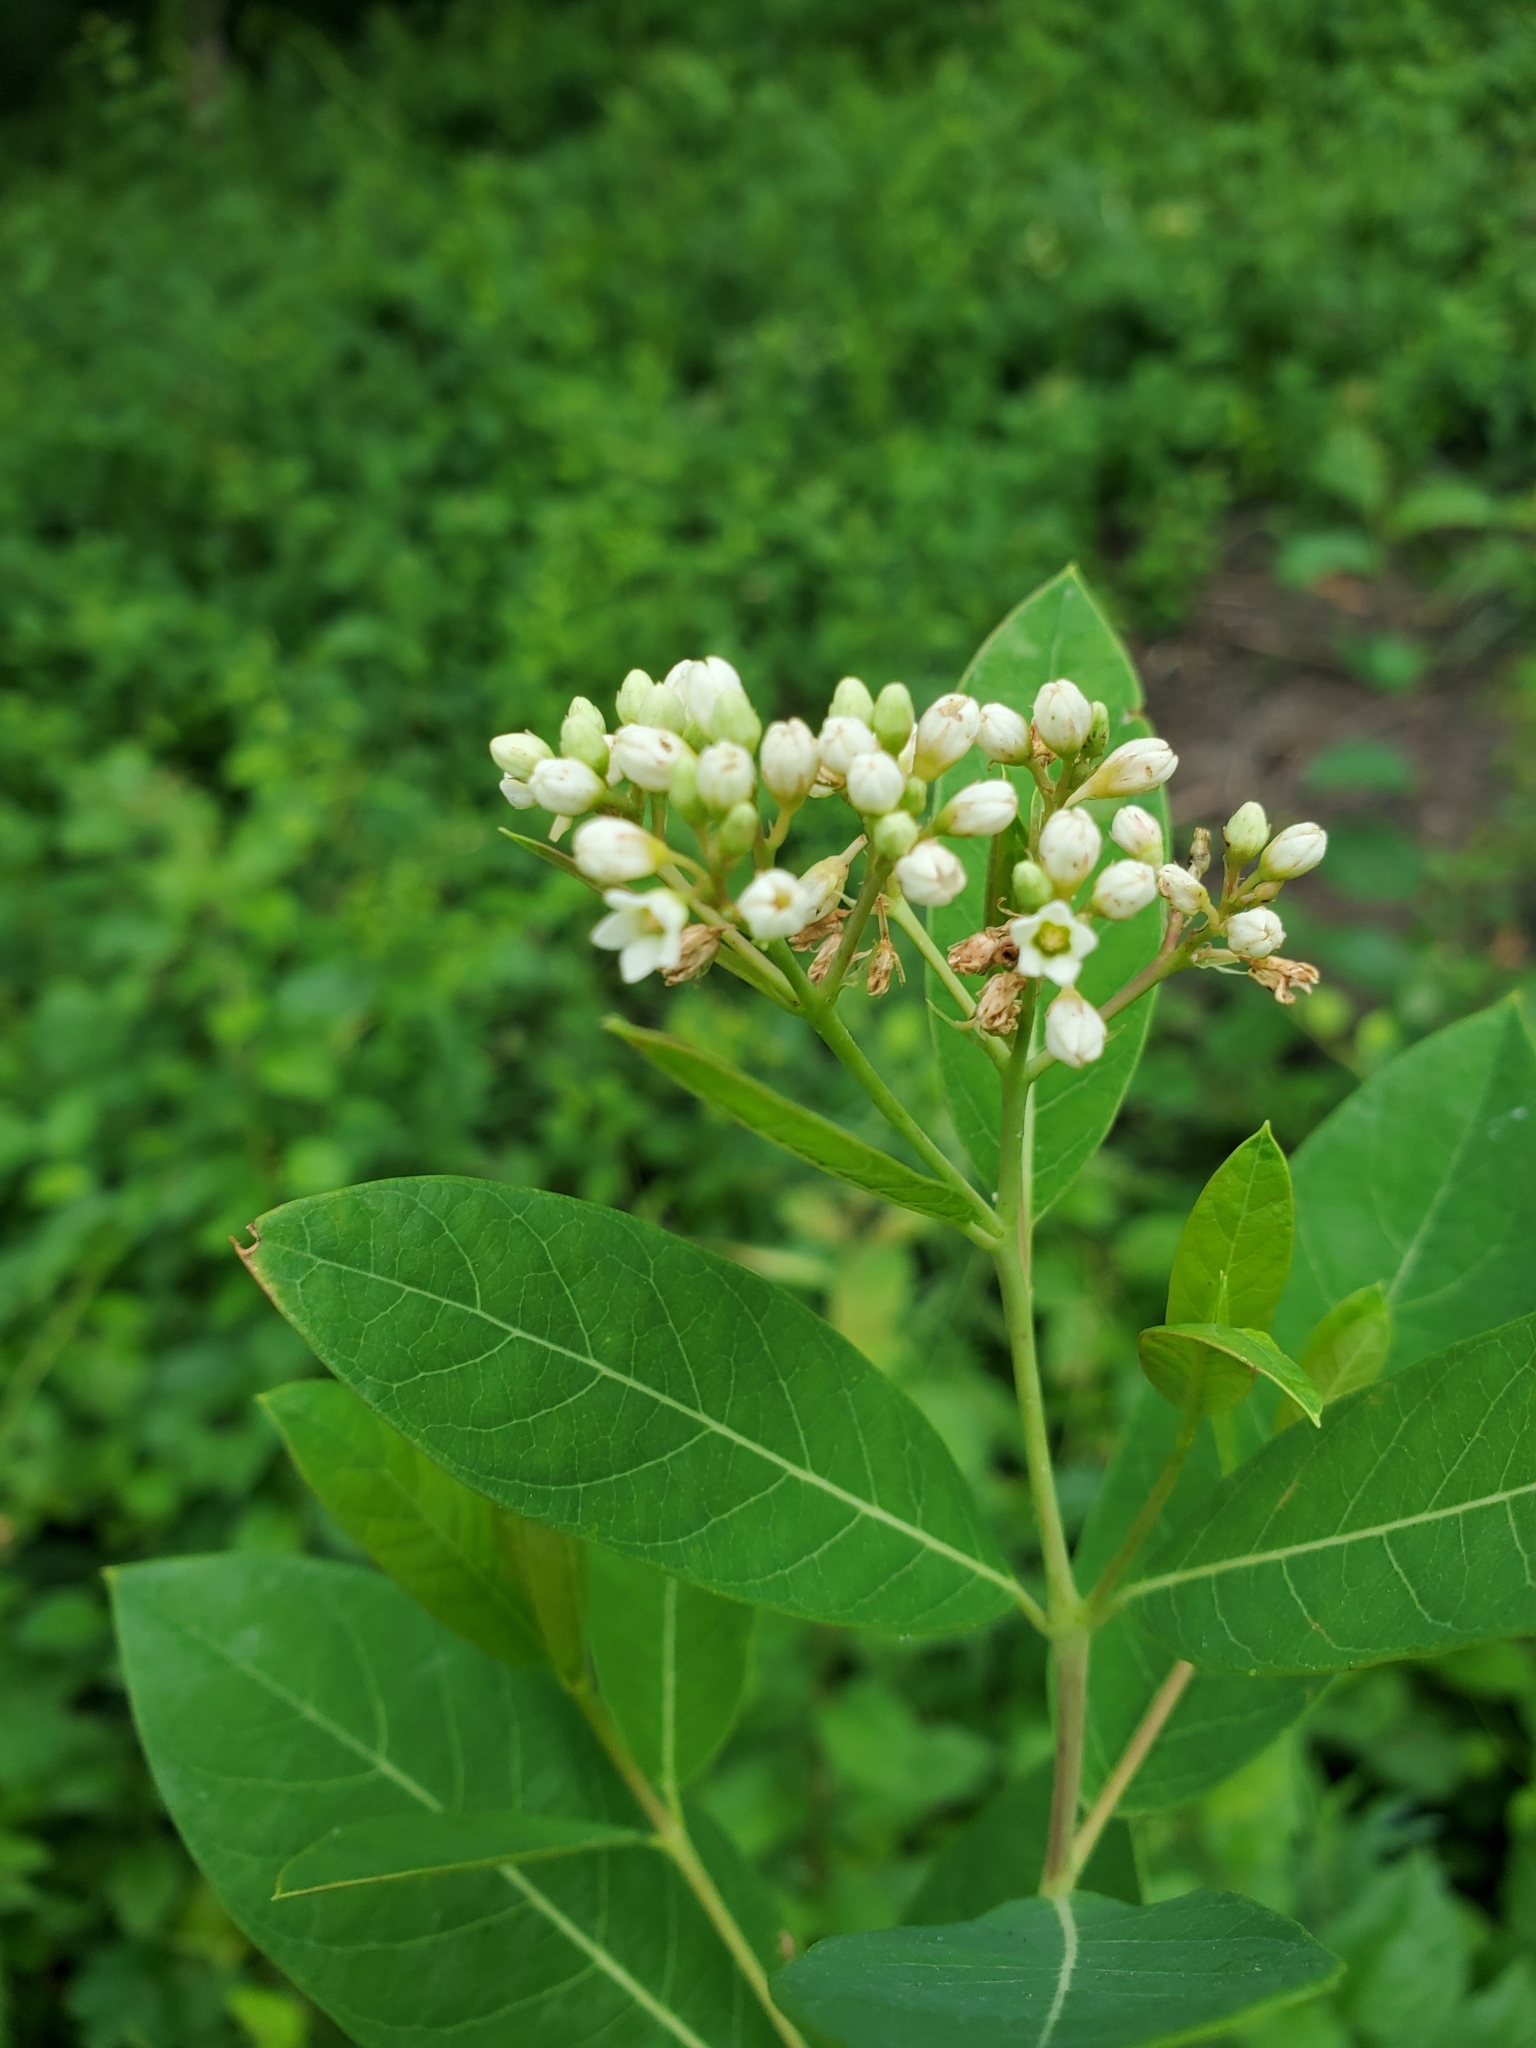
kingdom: Plantae
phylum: Tracheophyta
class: Magnoliopsida
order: Gentianales
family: Apocynaceae
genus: Apocynum
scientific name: Apocynum cannabinum
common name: Hemp dogbane
